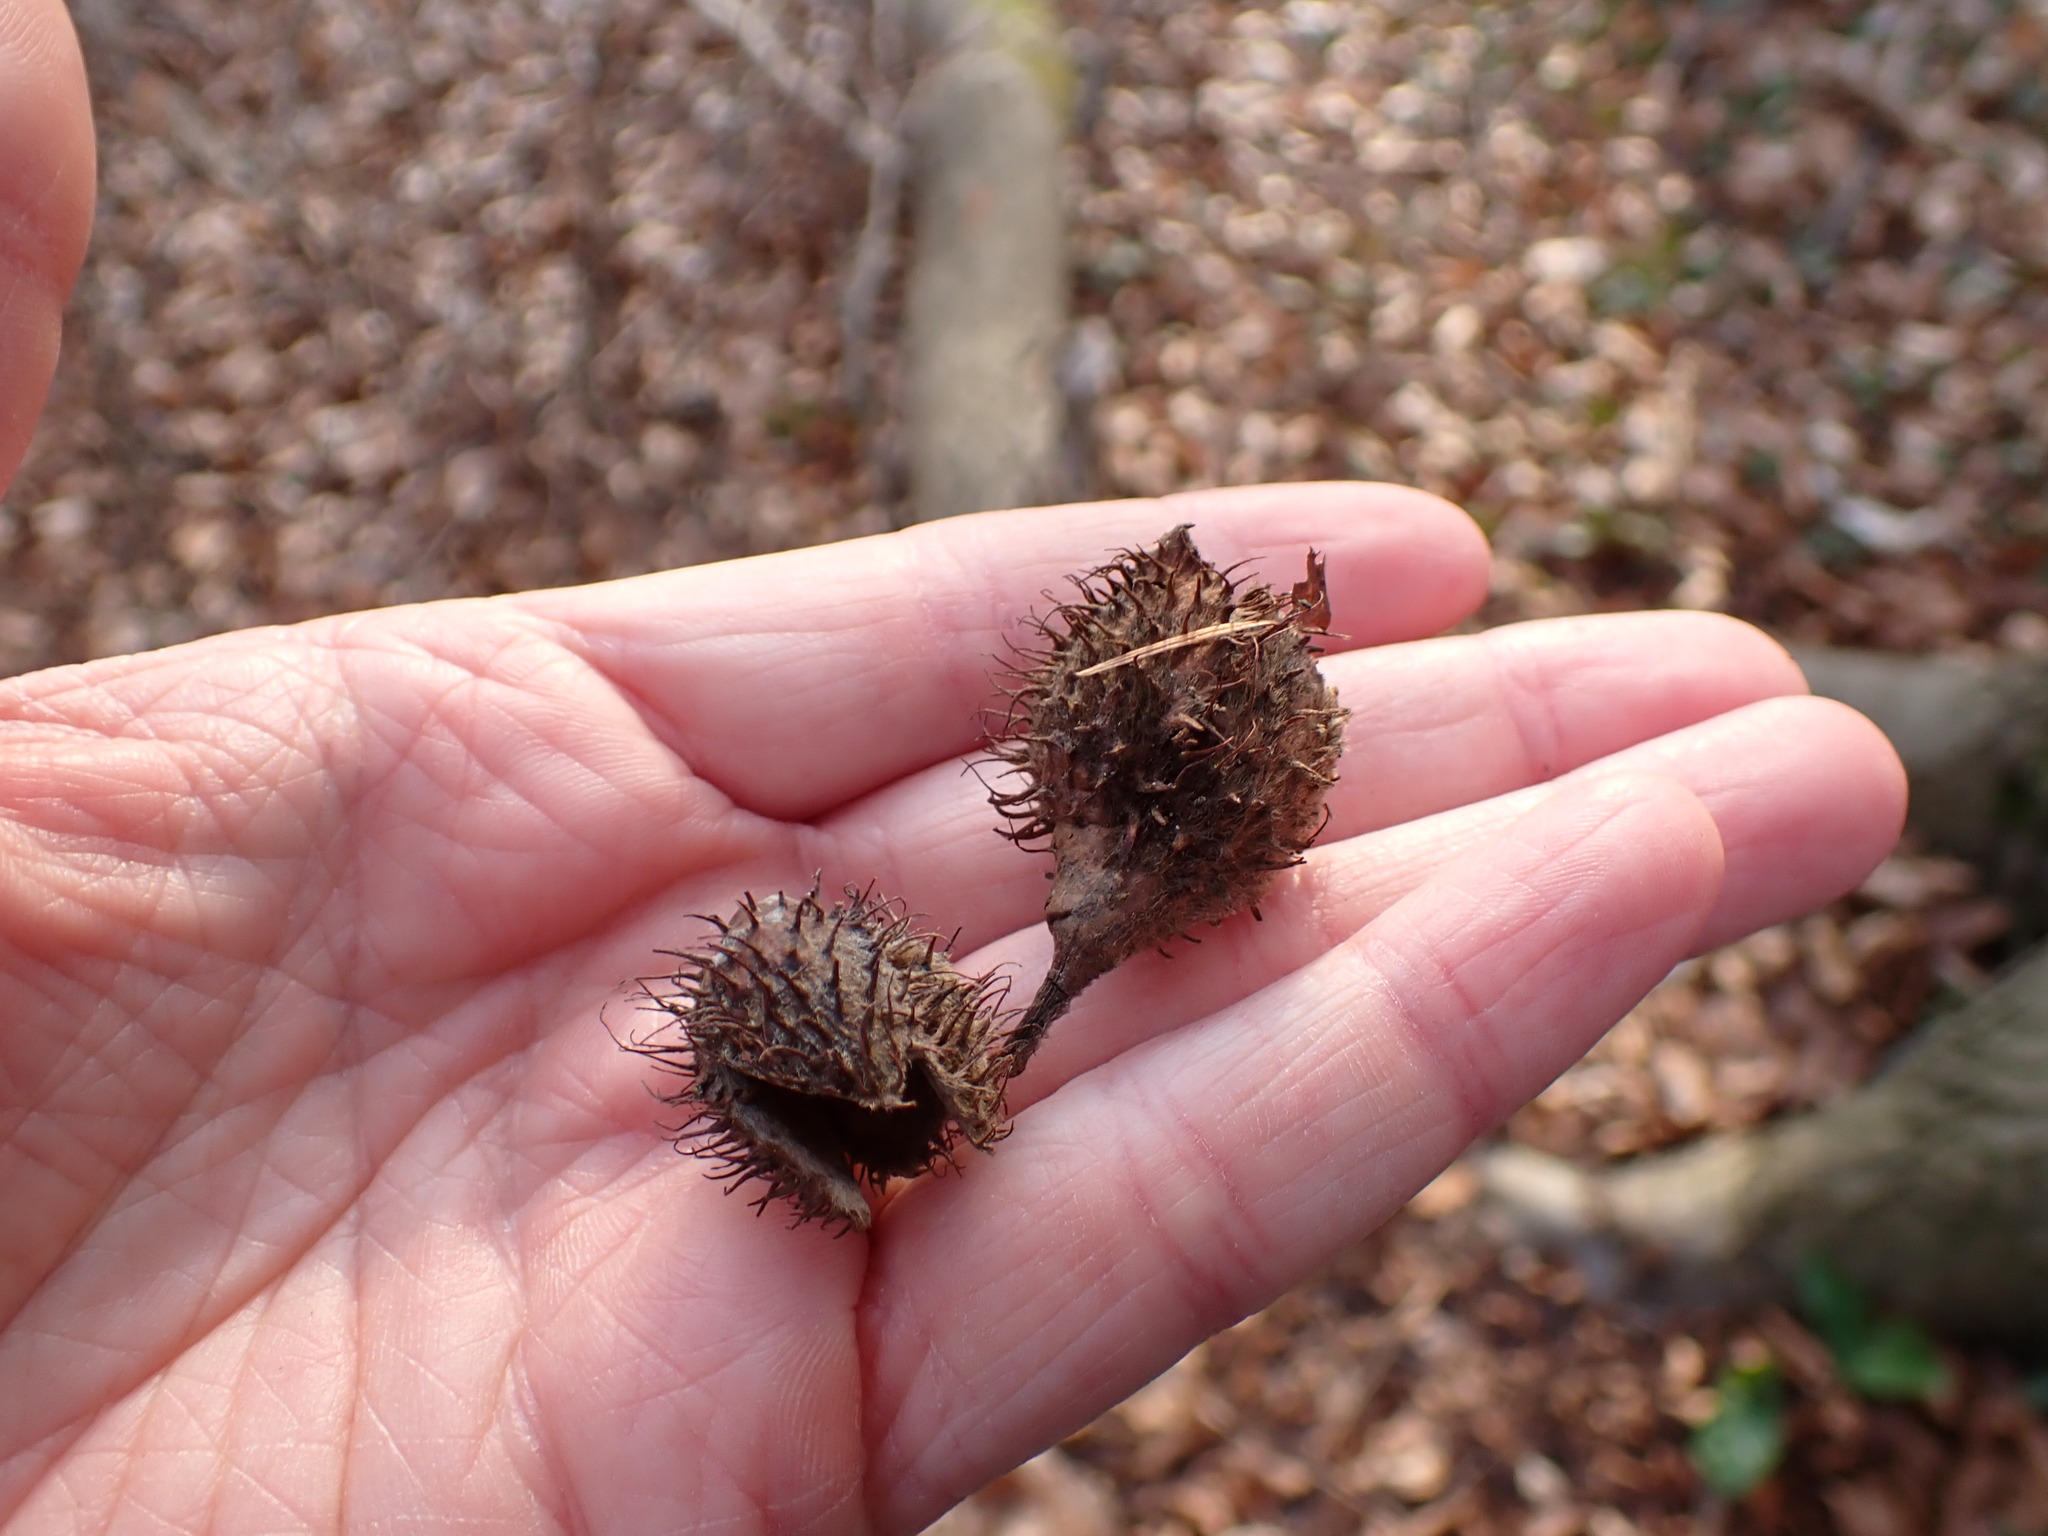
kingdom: Plantae
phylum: Tracheophyta
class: Magnoliopsida
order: Fagales
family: Fagaceae
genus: Fagus
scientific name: Fagus sylvatica
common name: Beech
